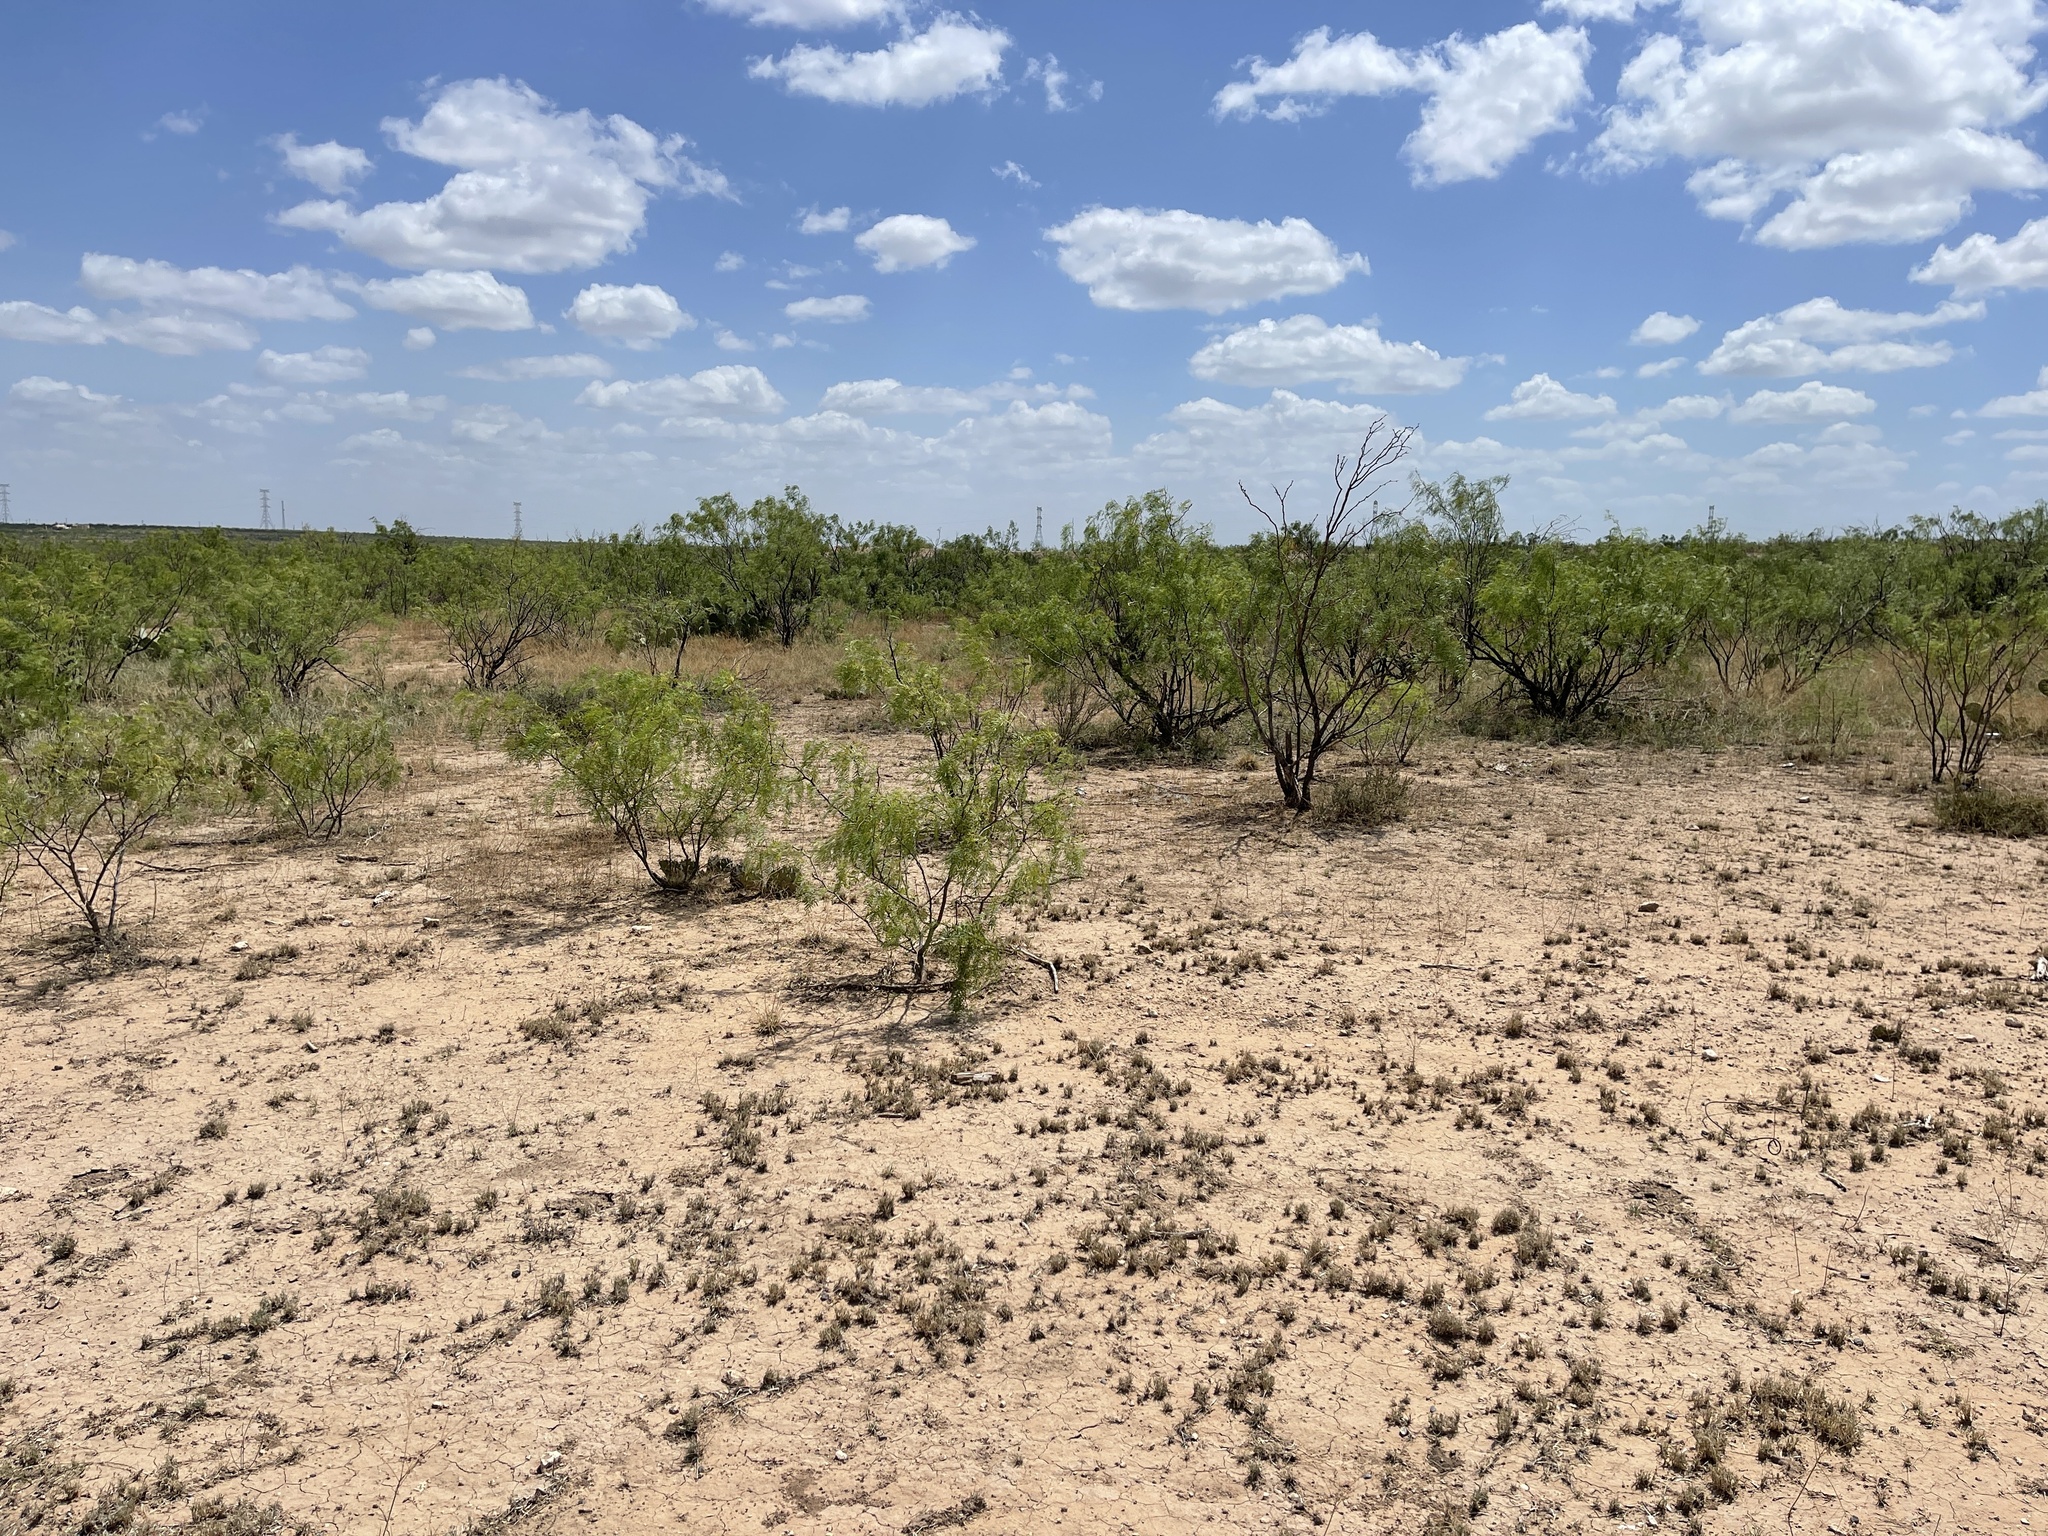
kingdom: Plantae
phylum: Tracheophyta
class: Magnoliopsida
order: Fabales
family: Fabaceae
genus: Prosopis
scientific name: Prosopis glandulosa
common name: Honey mesquite
